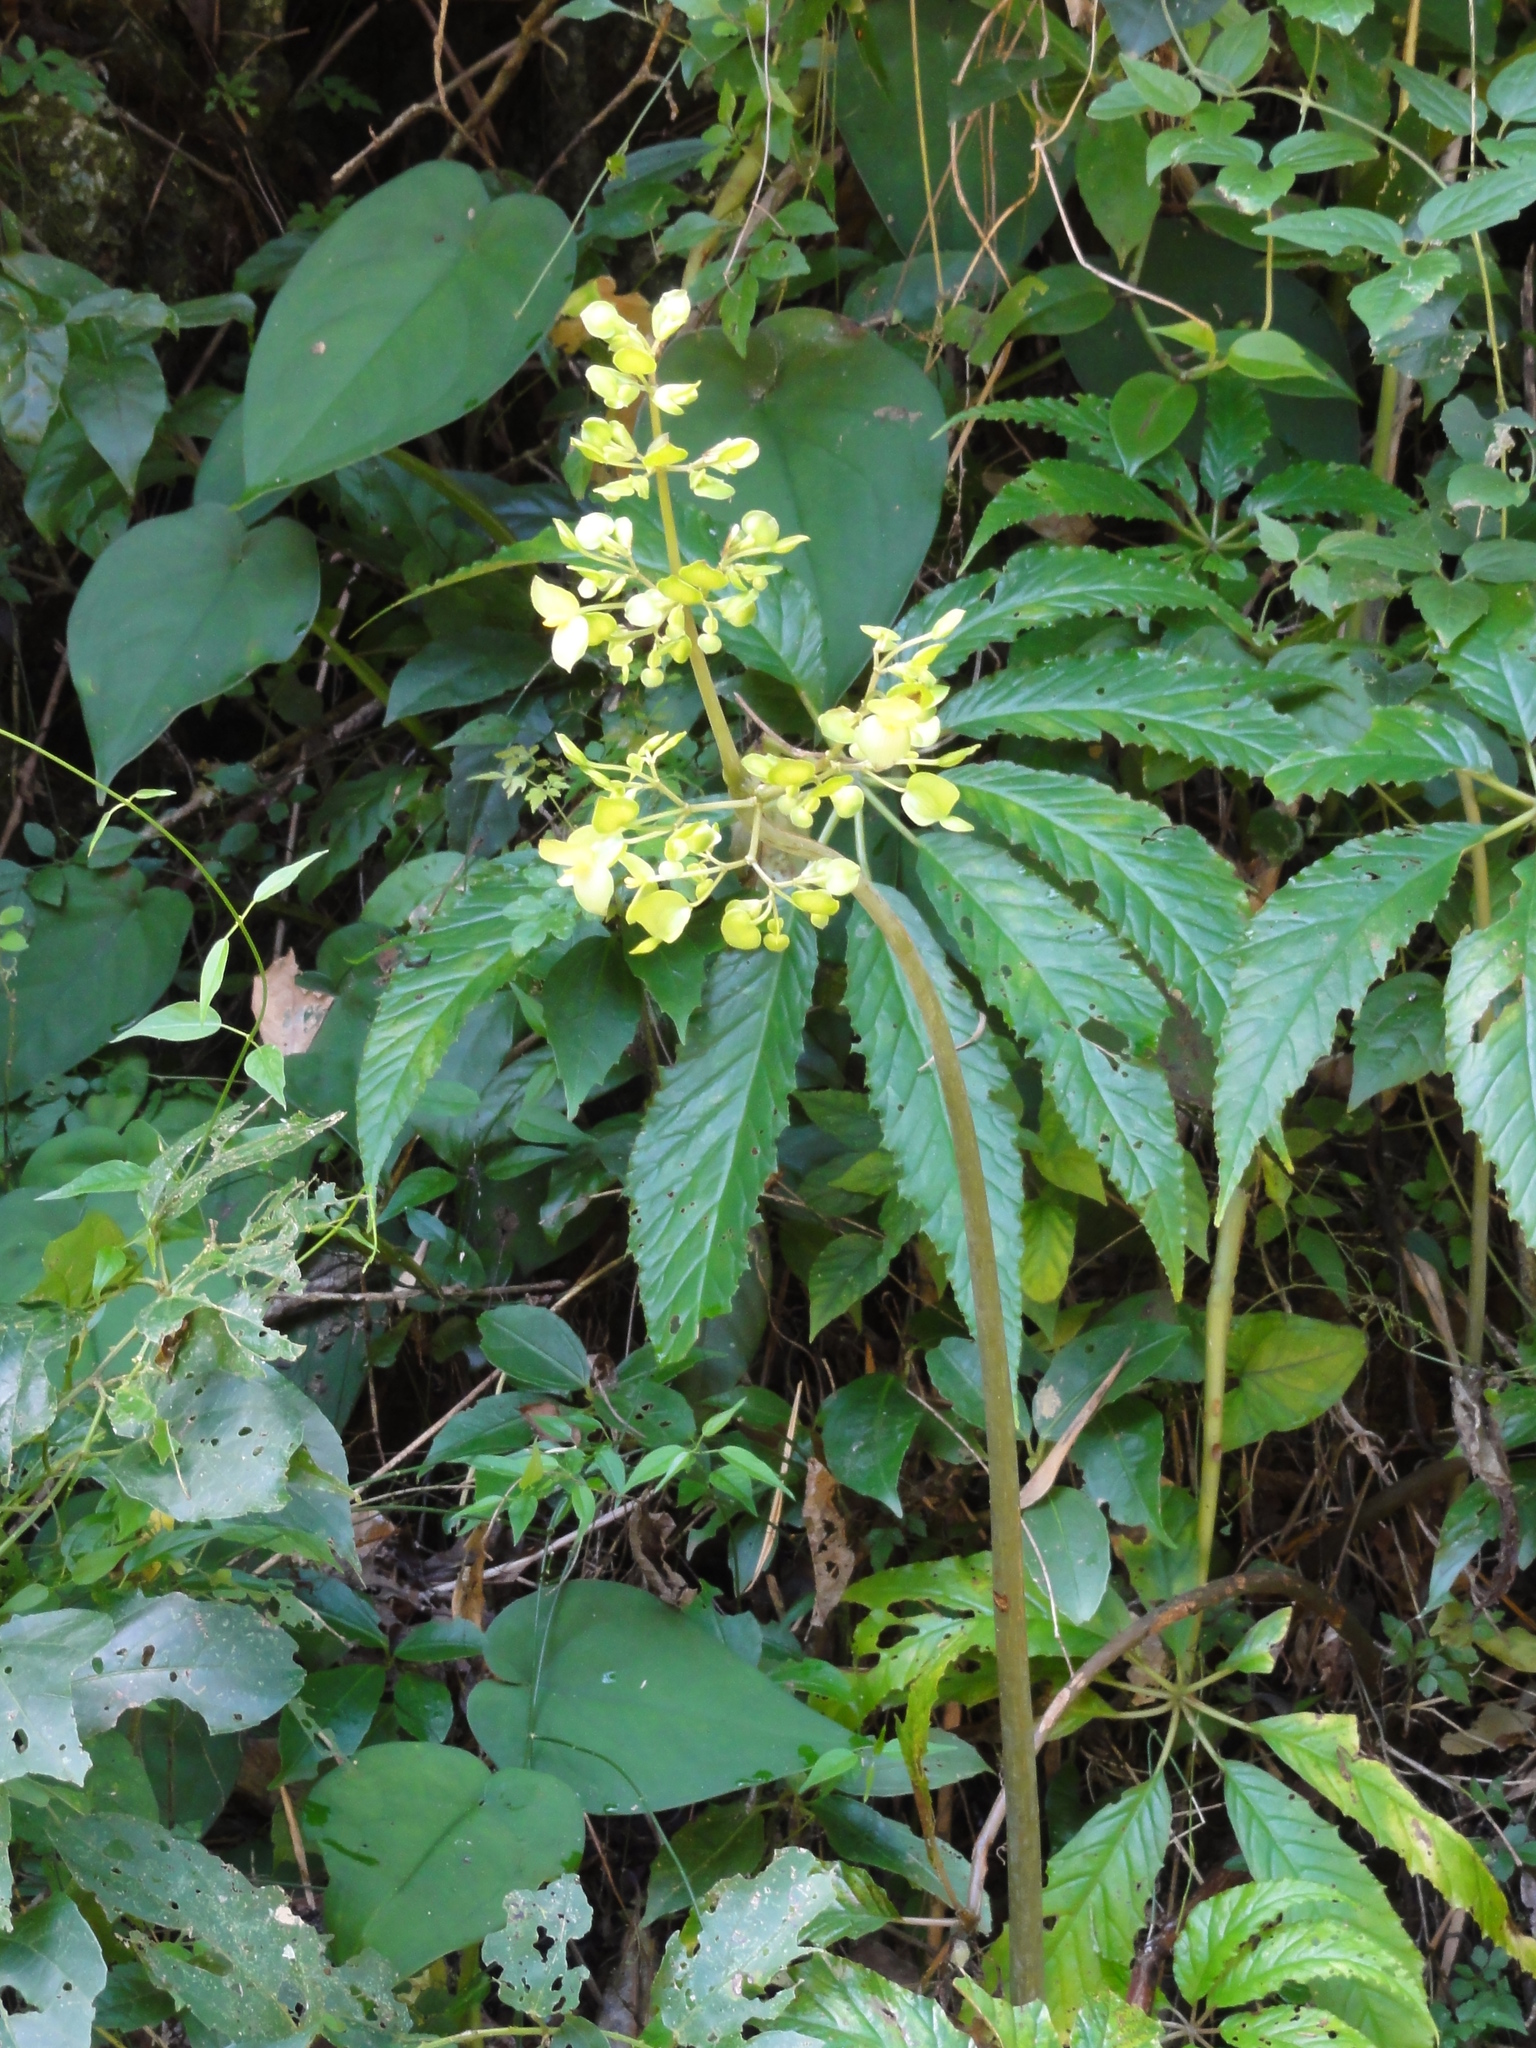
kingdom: Plantae
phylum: Tracheophyta
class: Magnoliopsida
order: Cucurbitales
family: Begoniaceae
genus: Begonia
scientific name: Begonia thiemei
